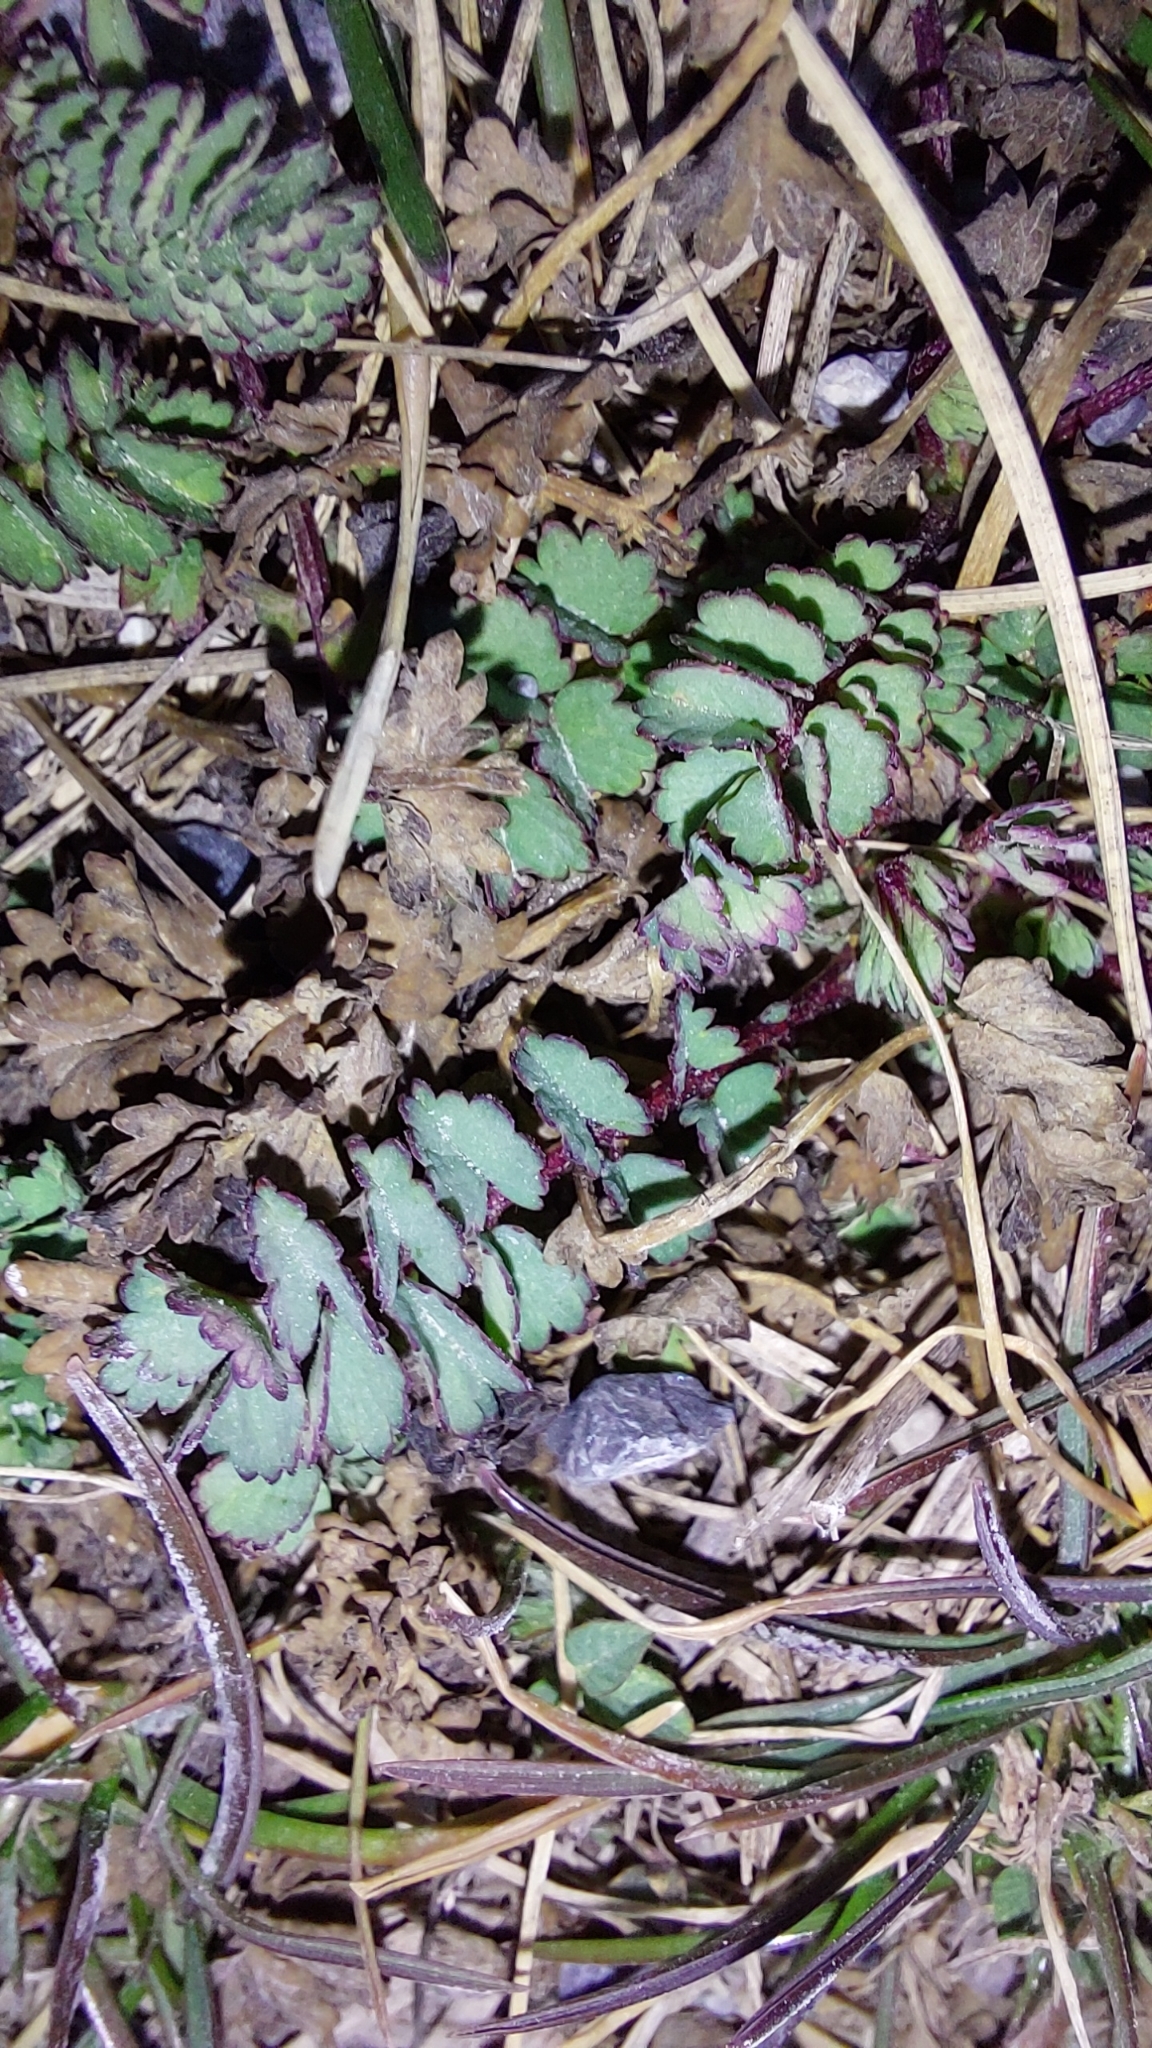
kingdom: Plantae
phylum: Tracheophyta
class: Magnoliopsida
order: Rosales
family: Rosaceae
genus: Poterium
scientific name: Poterium sanguisorba
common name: Salad burnet
